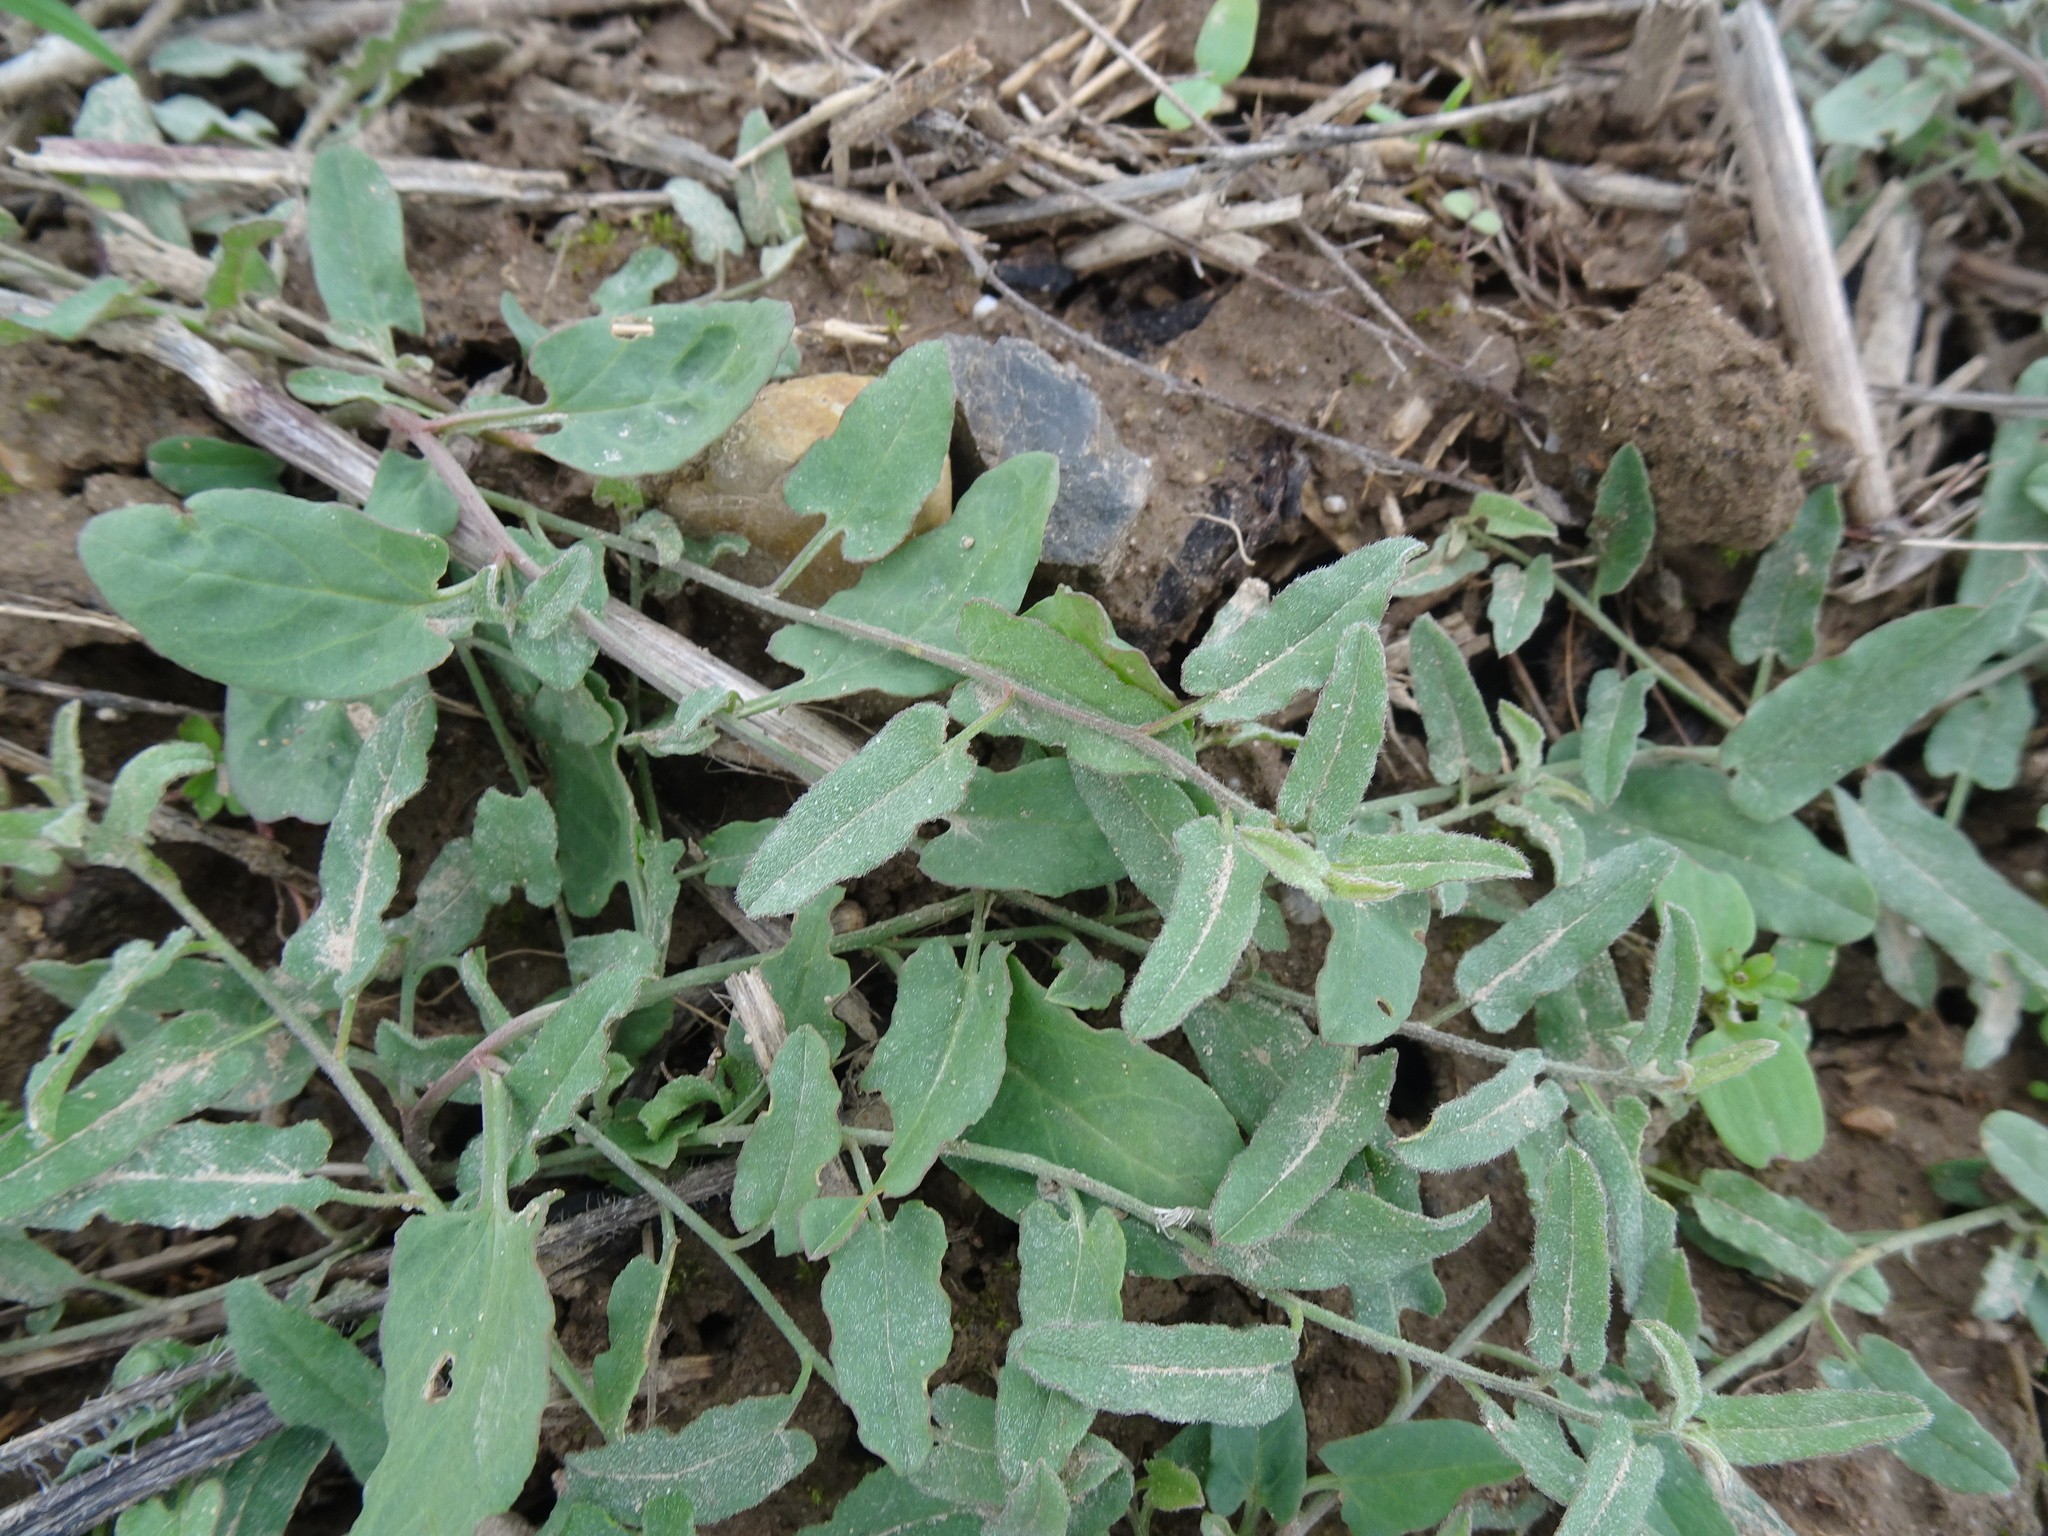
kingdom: Plantae
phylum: Tracheophyta
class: Magnoliopsida
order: Solanales
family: Convolvulaceae
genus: Convolvulus
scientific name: Convolvulus arvensis
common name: Field bindweed
